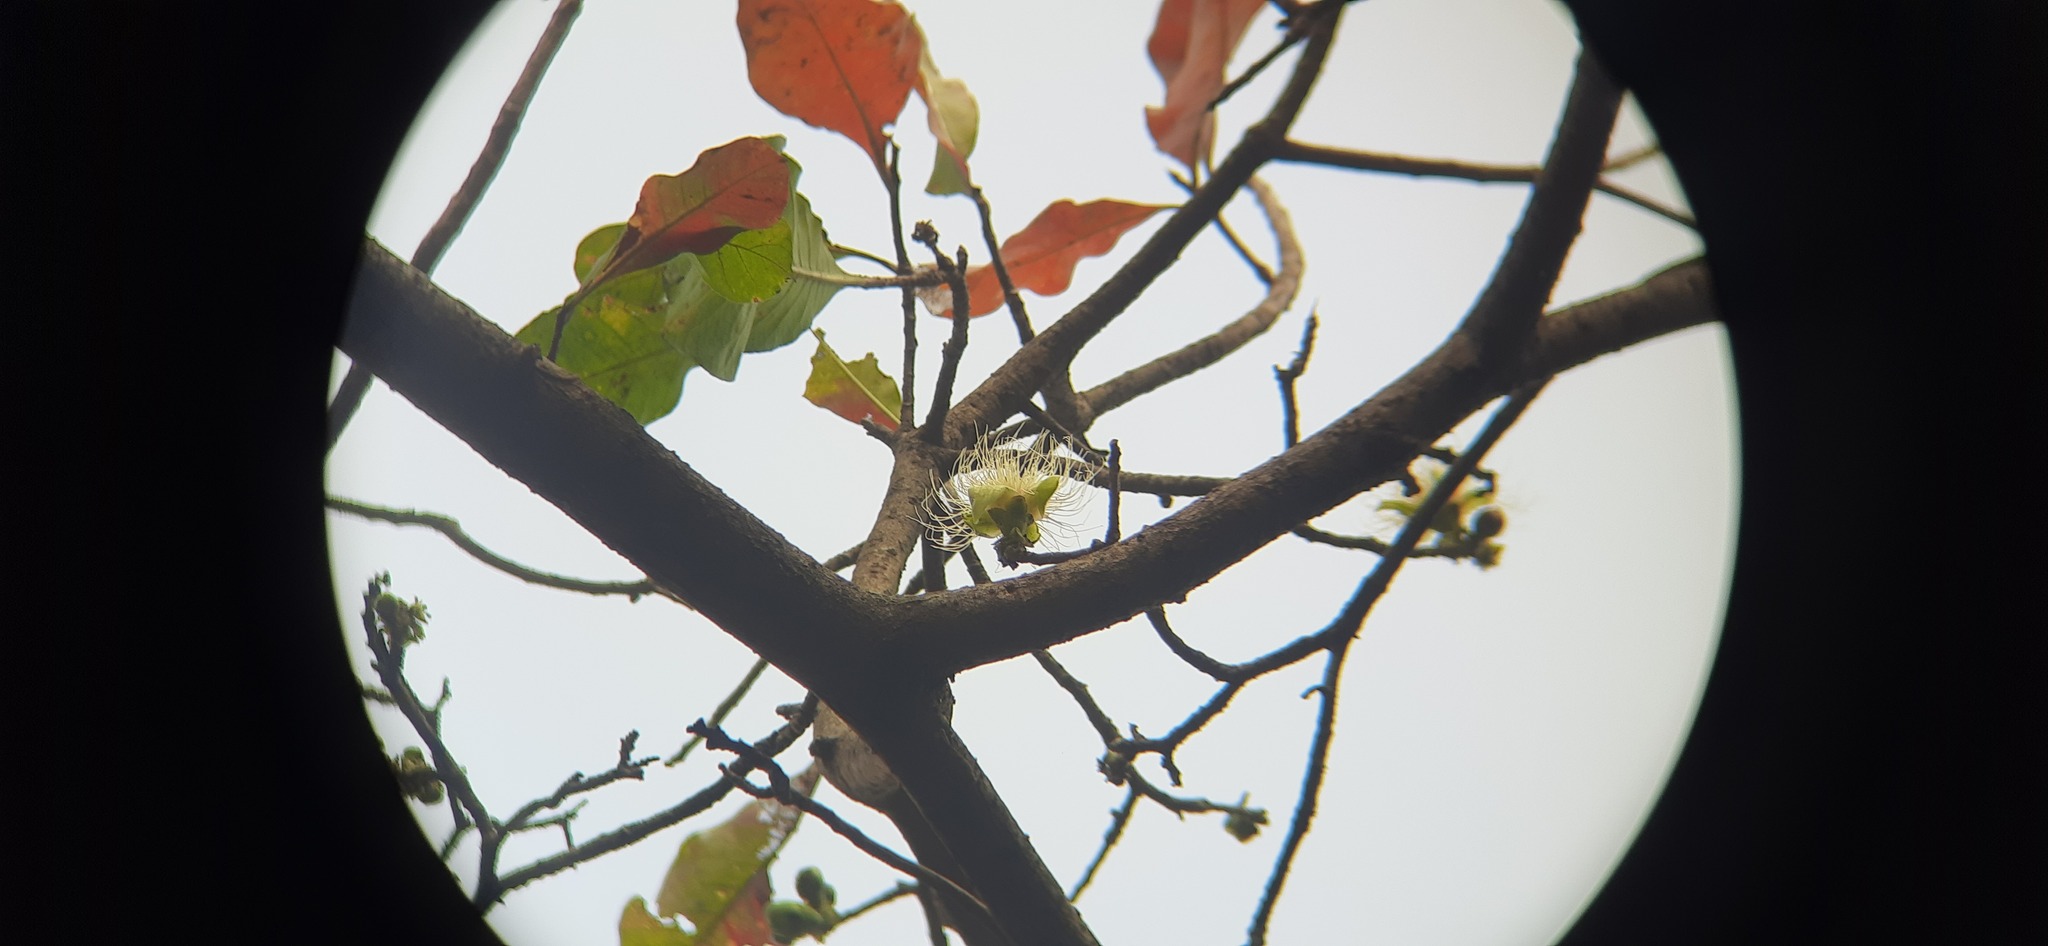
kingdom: Plantae
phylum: Tracheophyta
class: Magnoliopsida
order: Ericales
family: Lecythidaceae
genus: Careya
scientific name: Careya arborea
